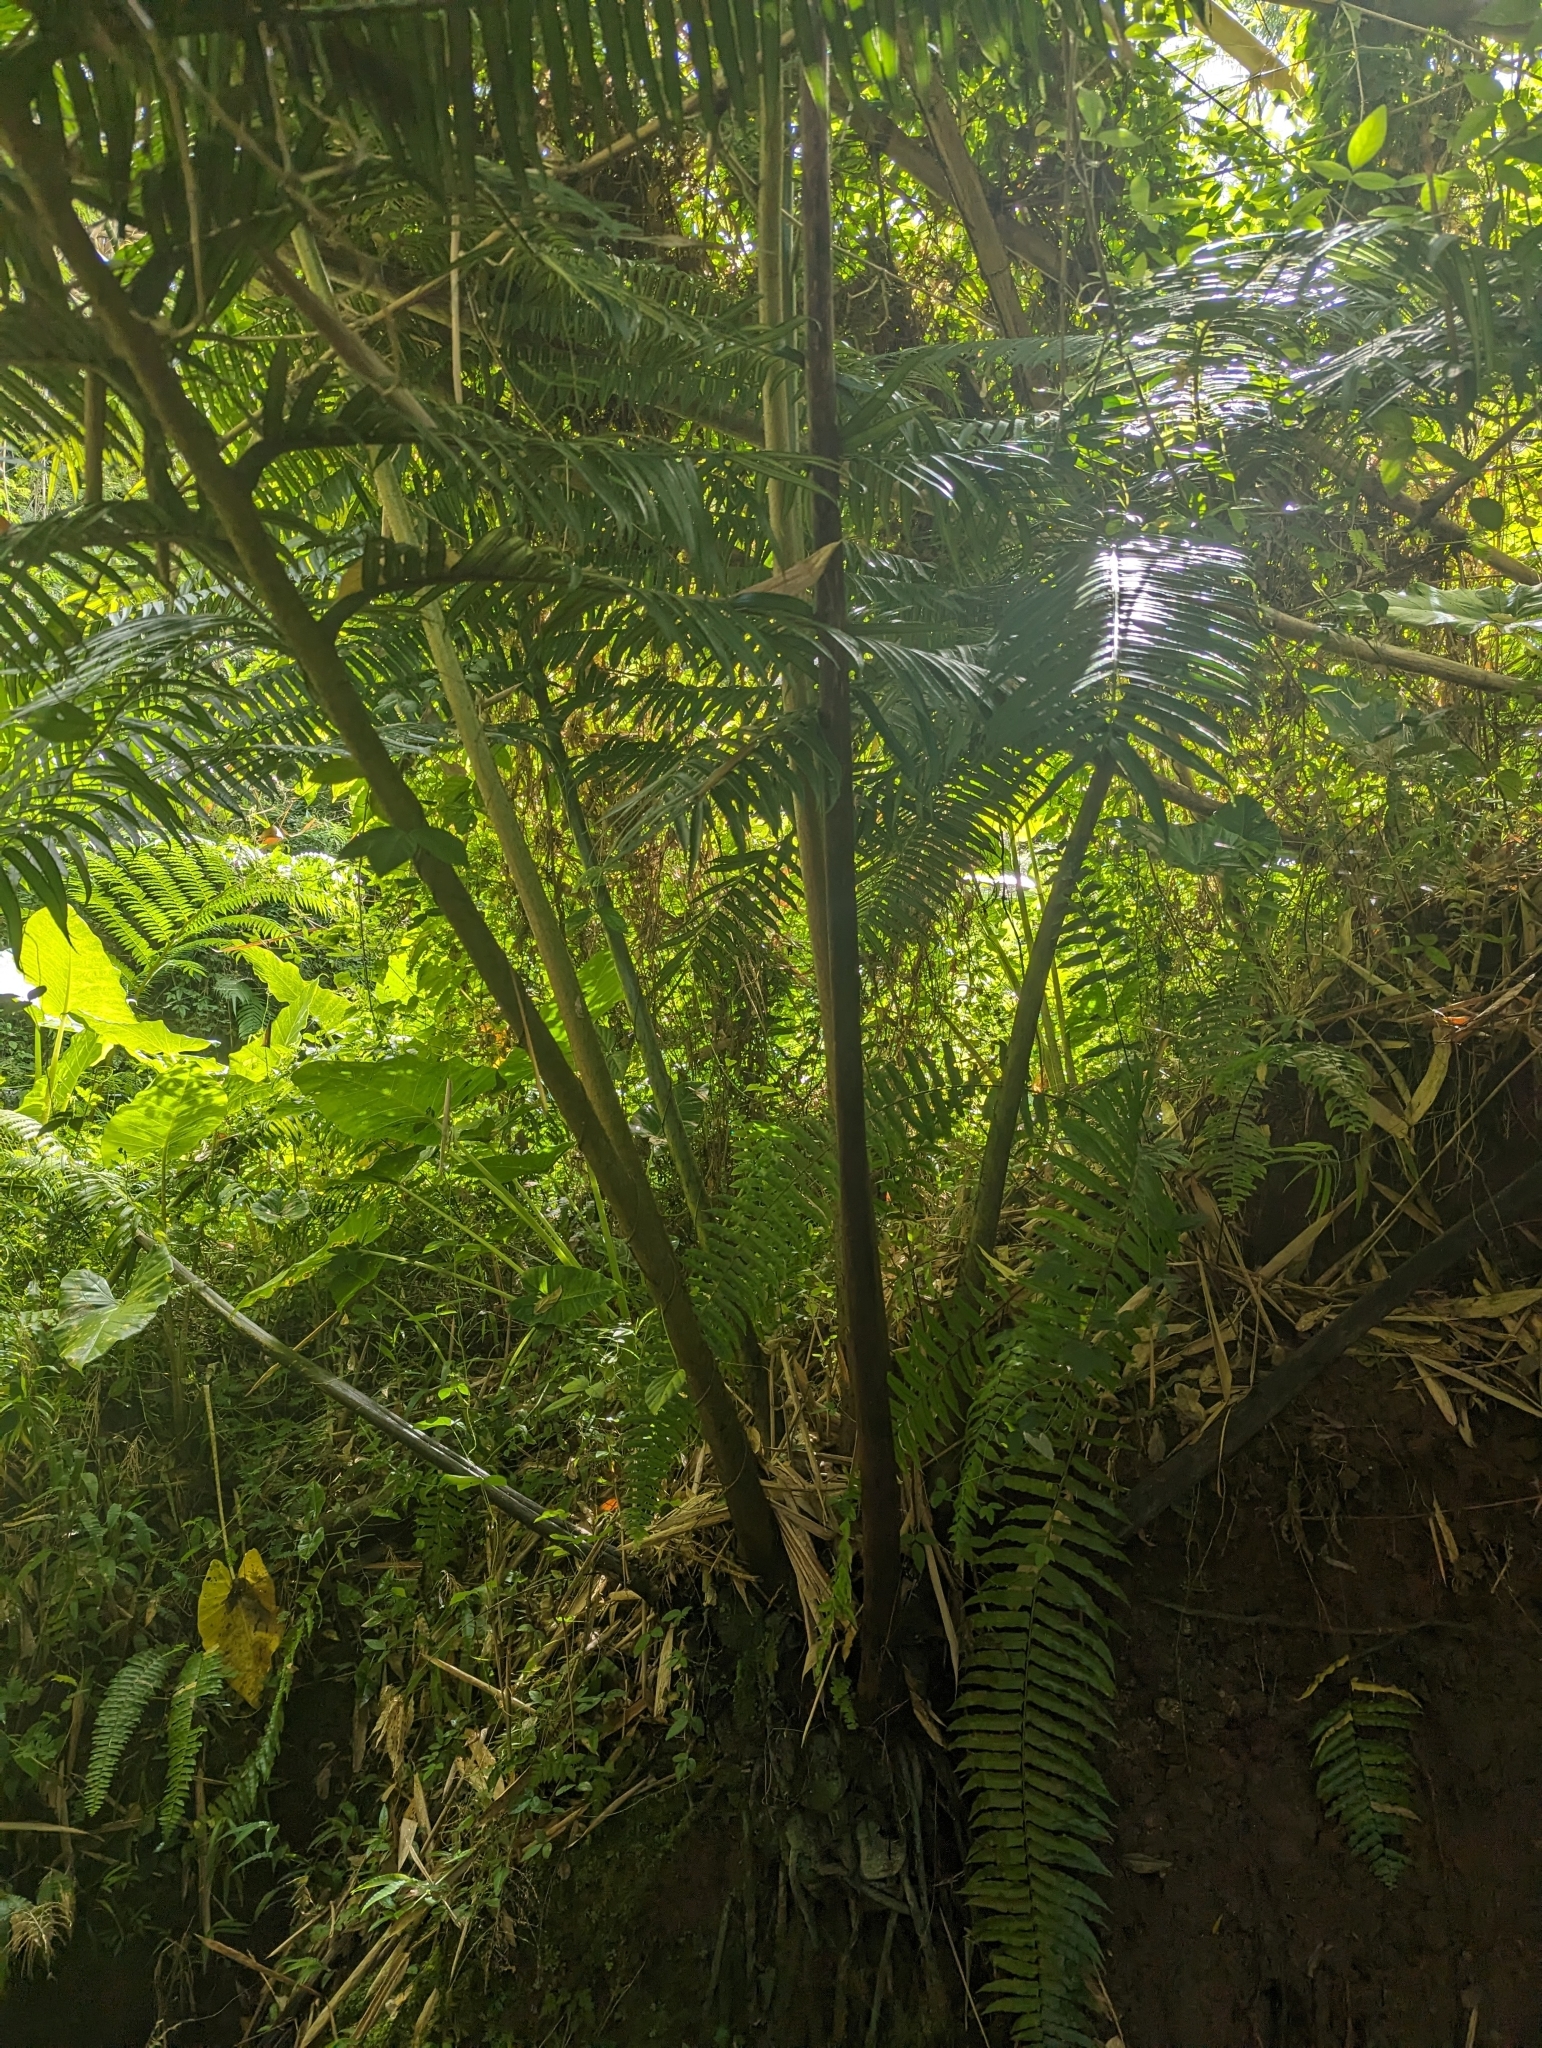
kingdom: Plantae
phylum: Tracheophyta
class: Polypodiopsida
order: Marattiales
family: Marattiaceae
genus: Angiopteris
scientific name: Angiopteris evecta
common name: Mule's-foot fern
